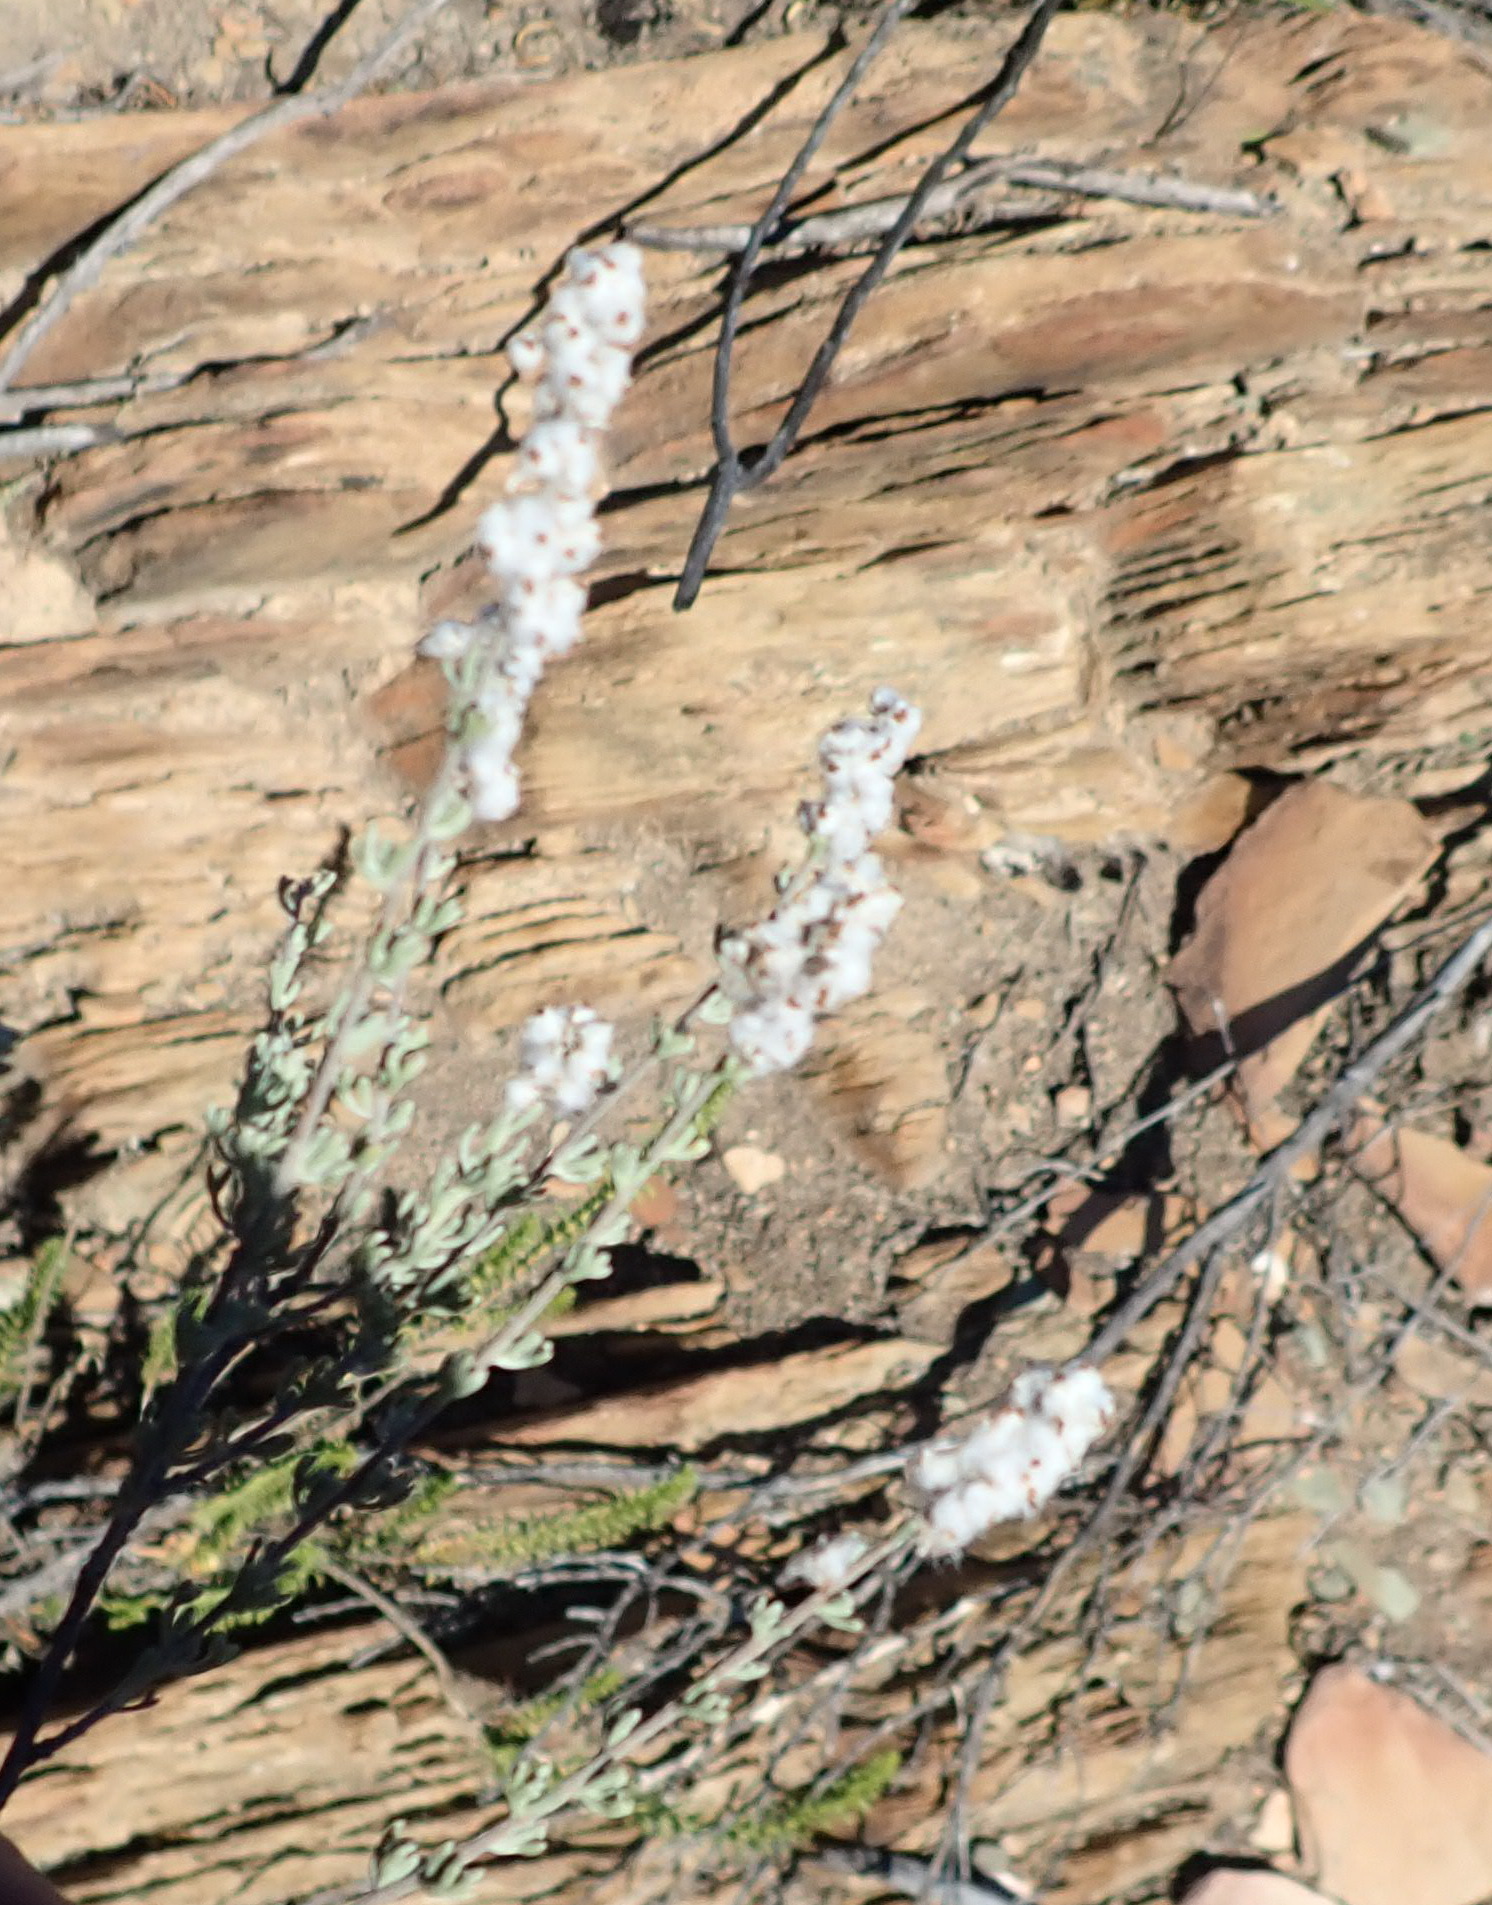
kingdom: Plantae
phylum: Tracheophyta
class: Magnoliopsida
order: Asterales
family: Asteraceae
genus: Eriocephalus
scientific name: Eriocephalus capitellatus
